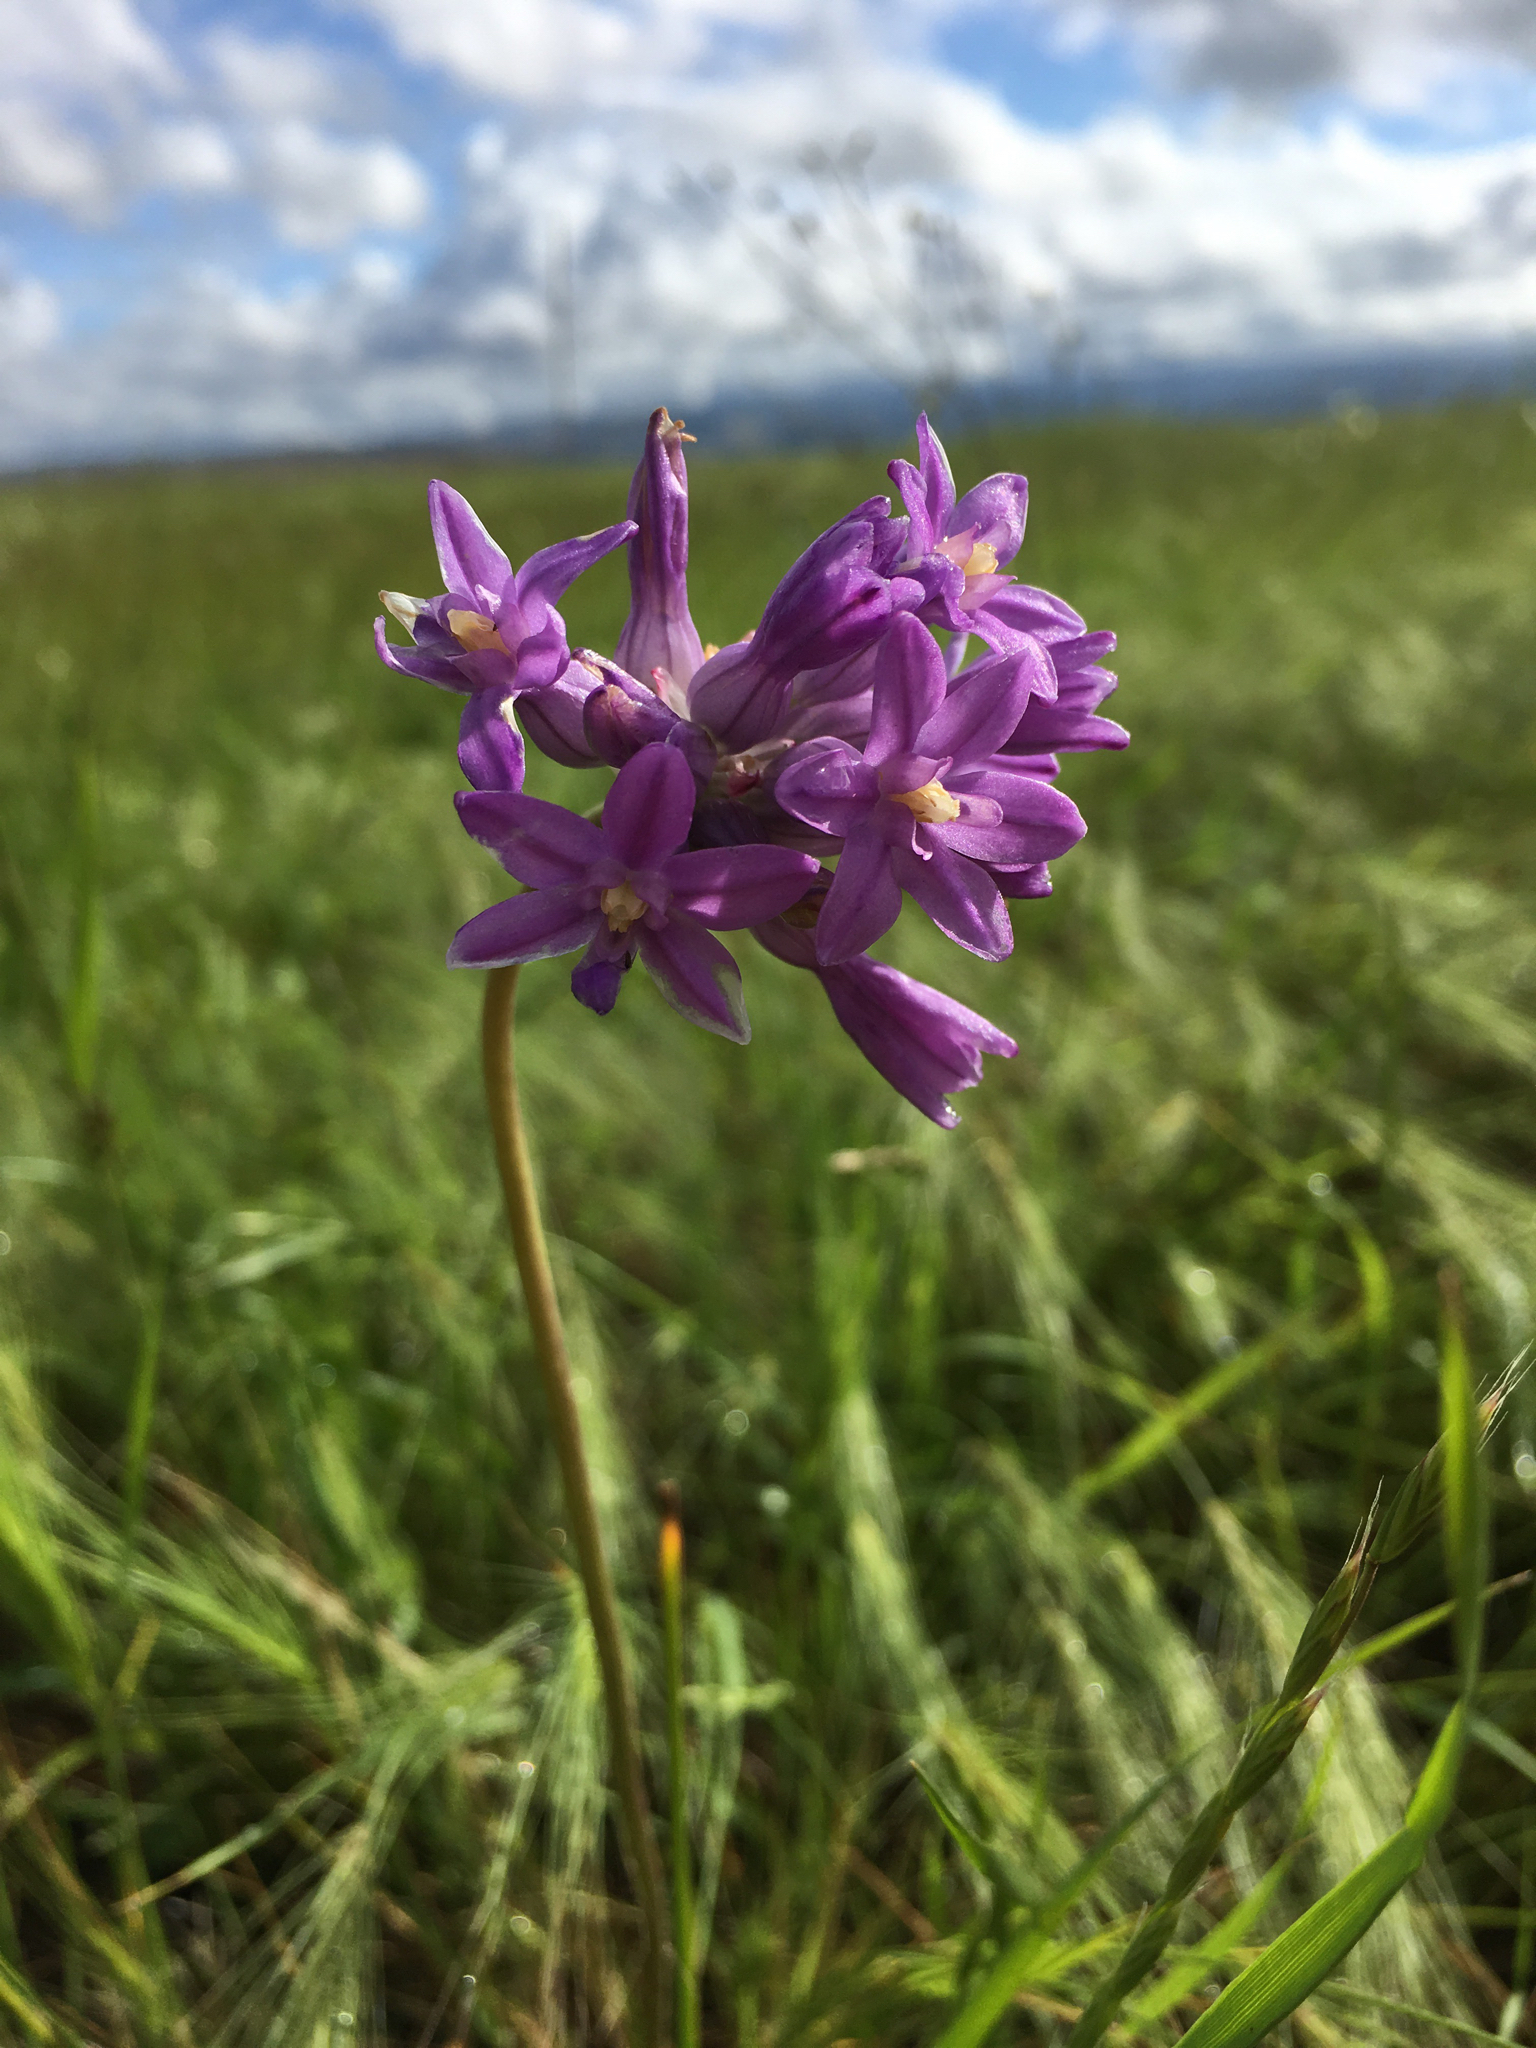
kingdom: Plantae
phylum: Tracheophyta
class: Liliopsida
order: Asparagales
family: Asparagaceae
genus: Dichelostemma
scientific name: Dichelostemma multiflorum
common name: Round-tooth ookow
